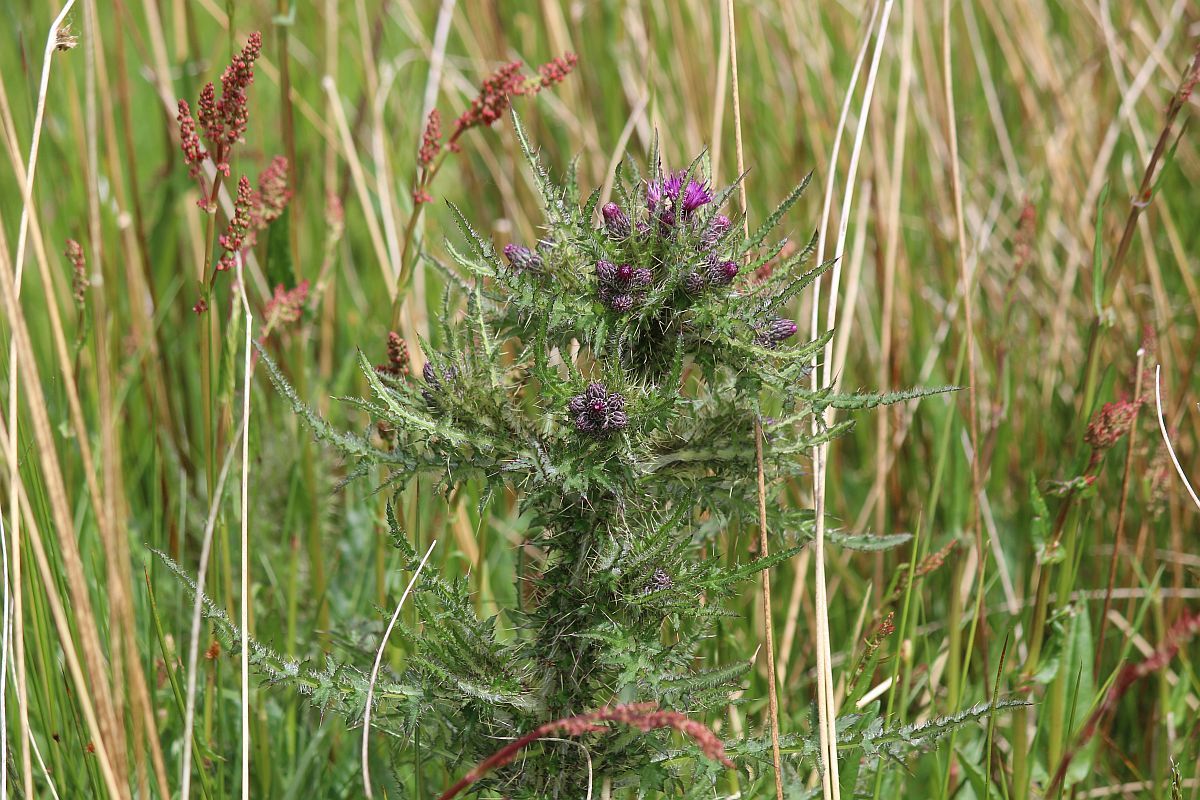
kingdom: Plantae
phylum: Tracheophyta
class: Magnoliopsida
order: Asterales
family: Asteraceae
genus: Cirsium
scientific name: Cirsium palustre
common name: Marsh thistle
